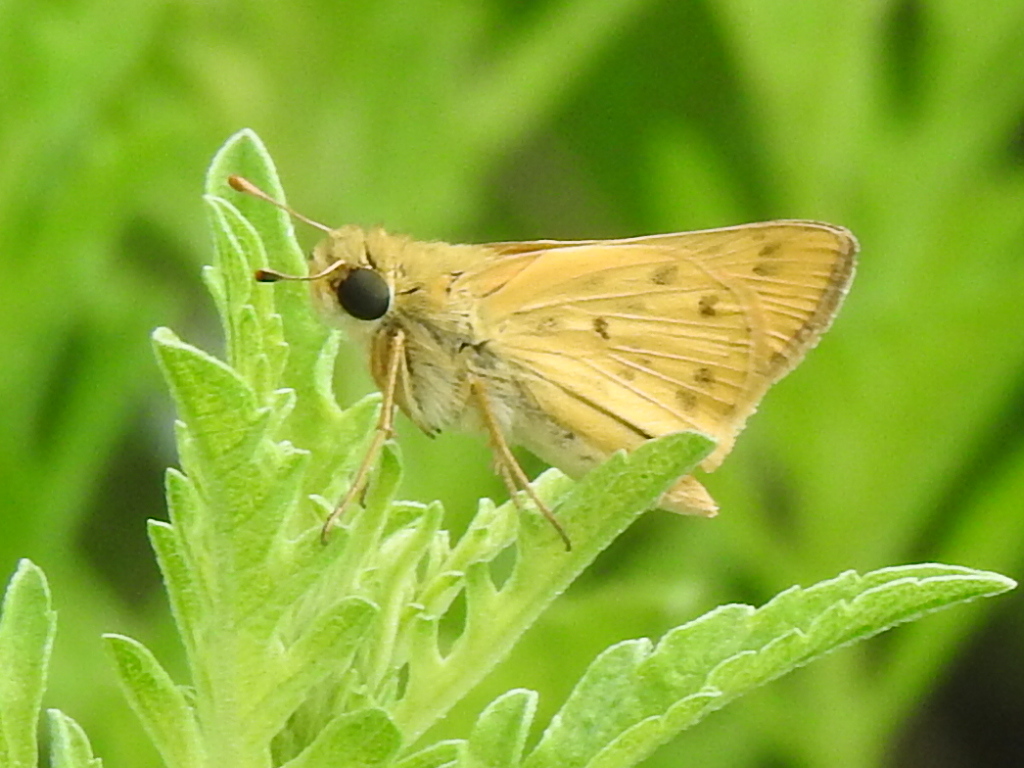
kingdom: Animalia
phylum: Arthropoda
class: Insecta
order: Lepidoptera
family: Hesperiidae
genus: Hylephila
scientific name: Hylephila phyleus
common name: Fiery skipper
